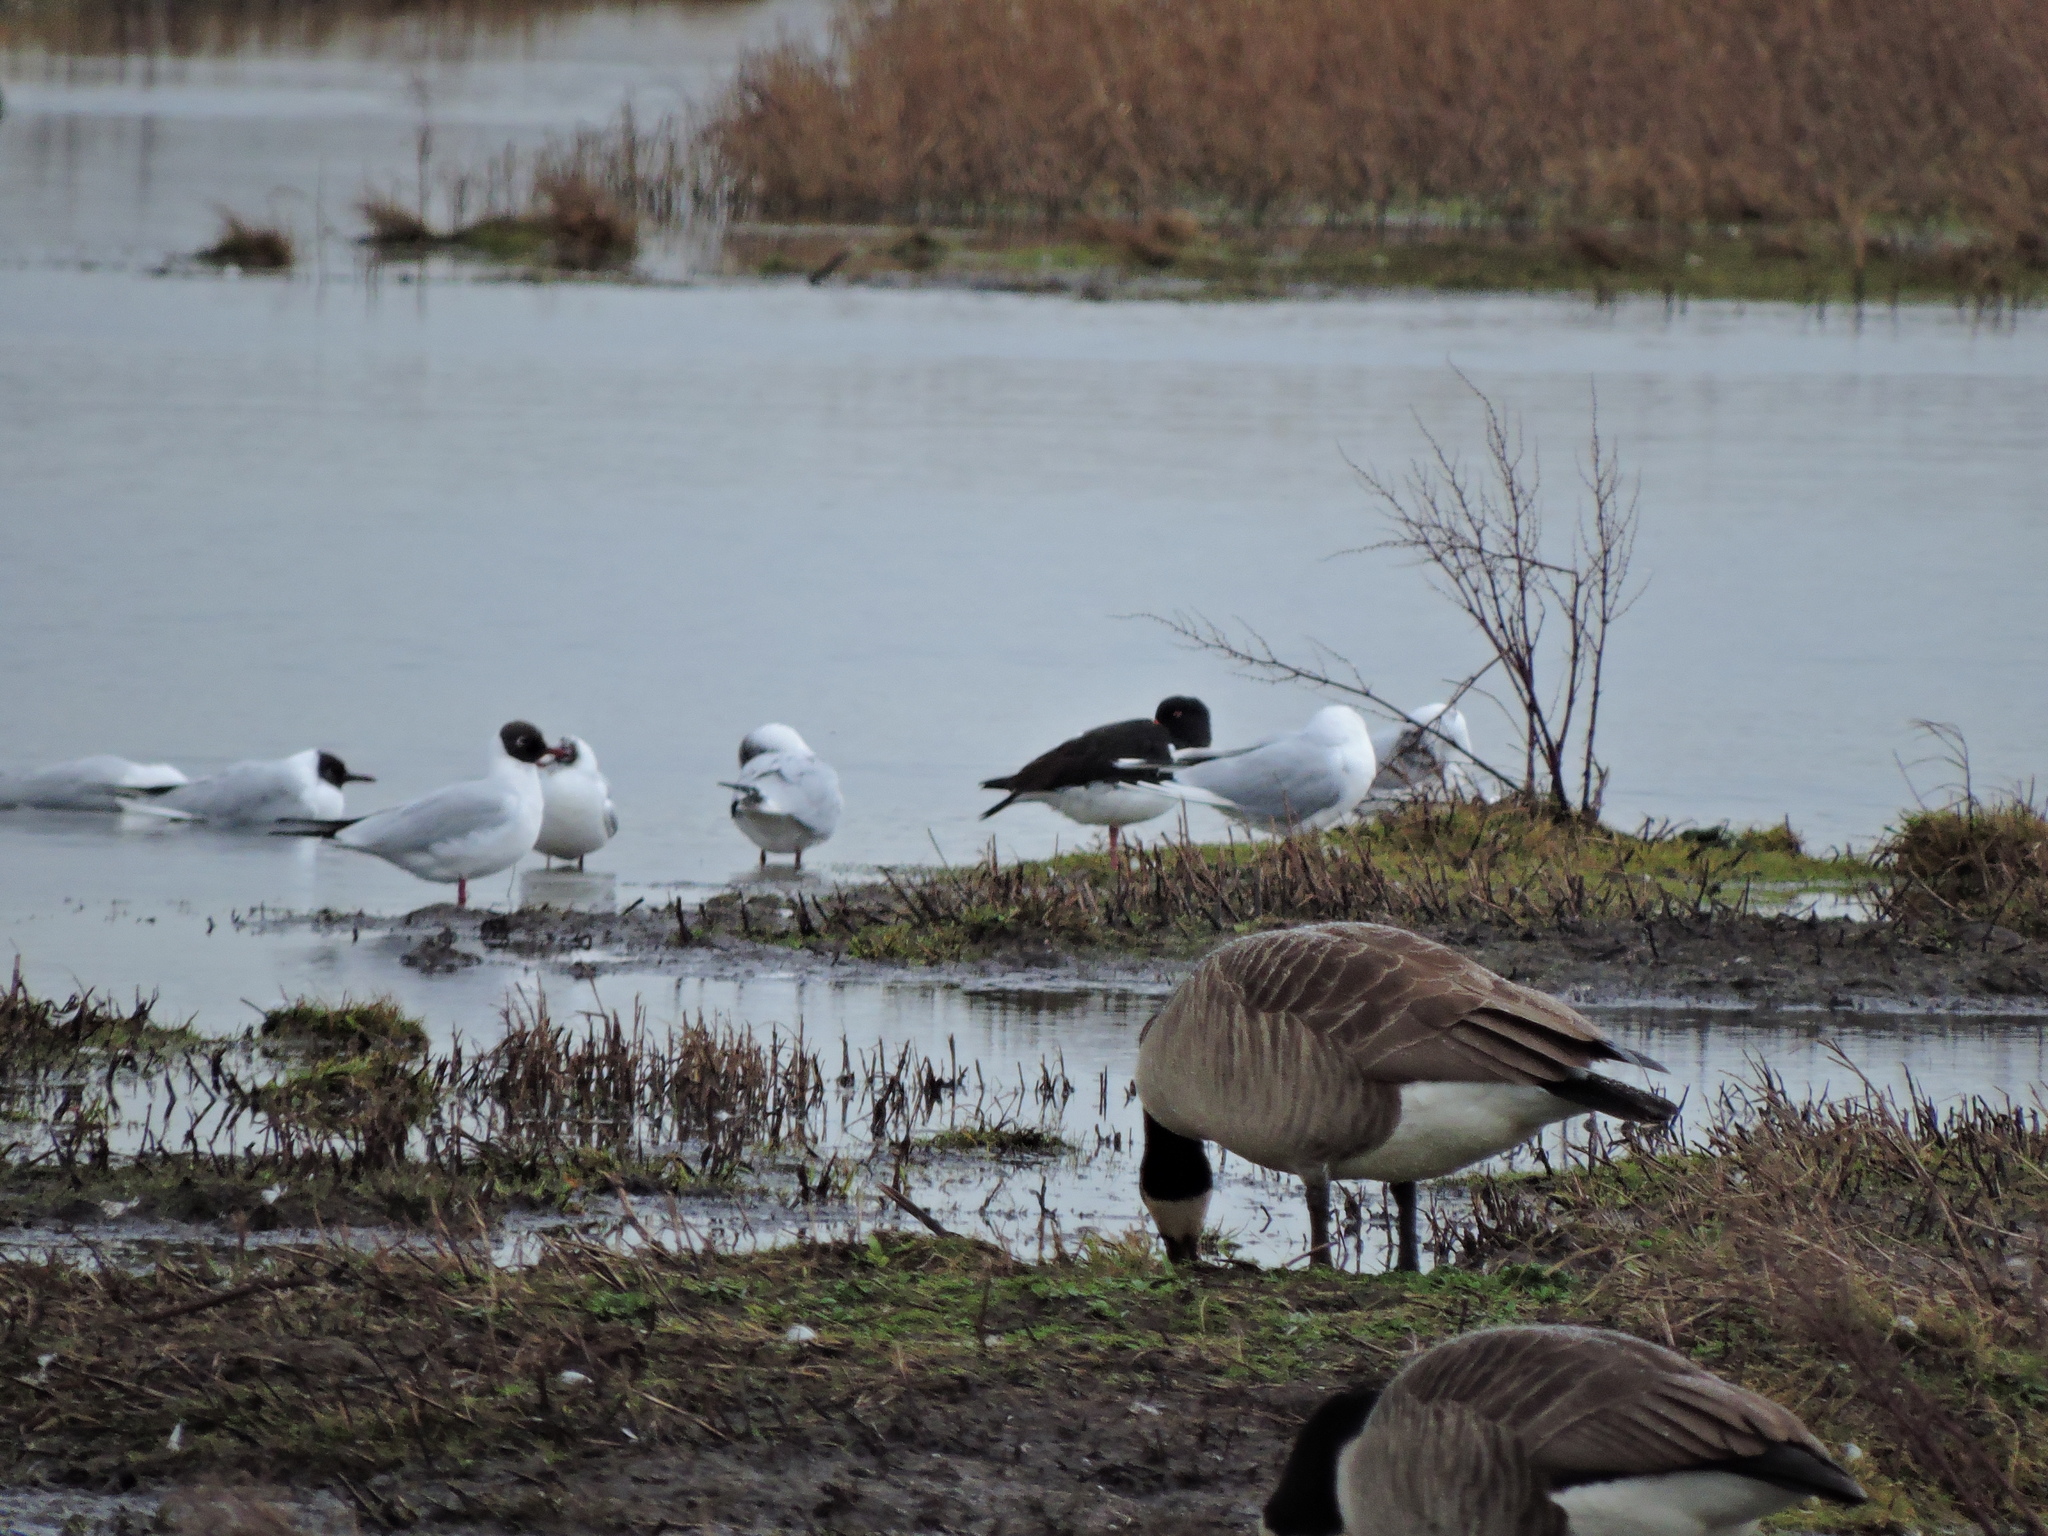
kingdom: Animalia
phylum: Chordata
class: Aves
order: Anseriformes
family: Anatidae
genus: Branta
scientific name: Branta canadensis
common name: Canada goose
